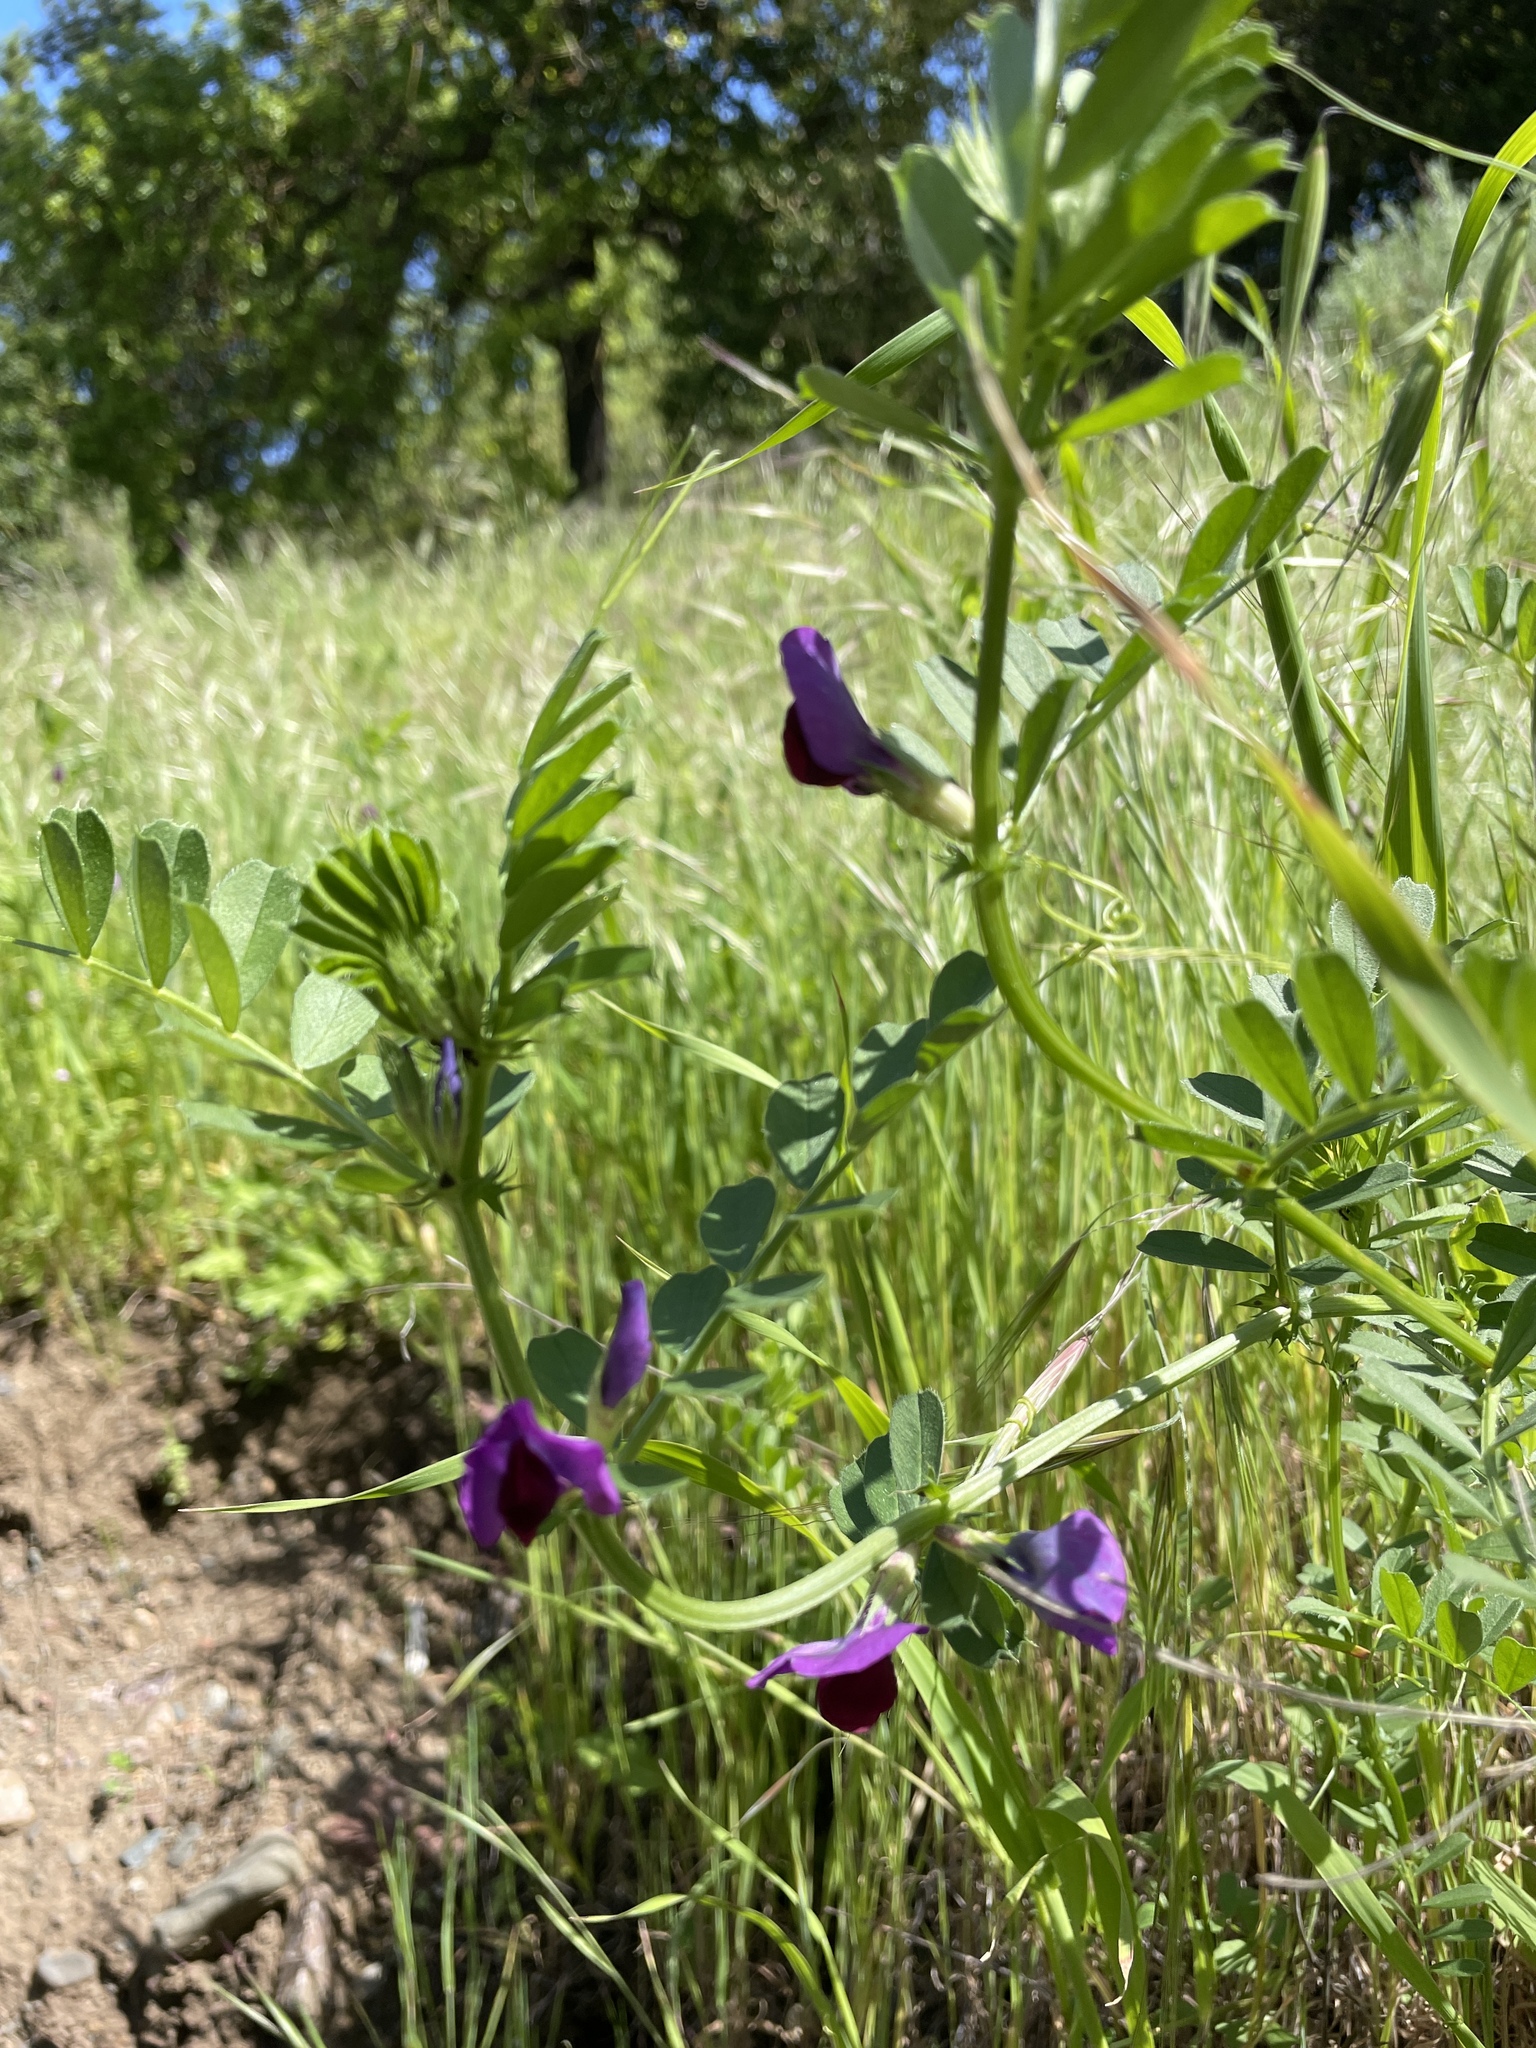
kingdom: Plantae
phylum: Tracheophyta
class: Magnoliopsida
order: Fabales
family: Fabaceae
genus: Vicia
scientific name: Vicia sativa
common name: Garden vetch
